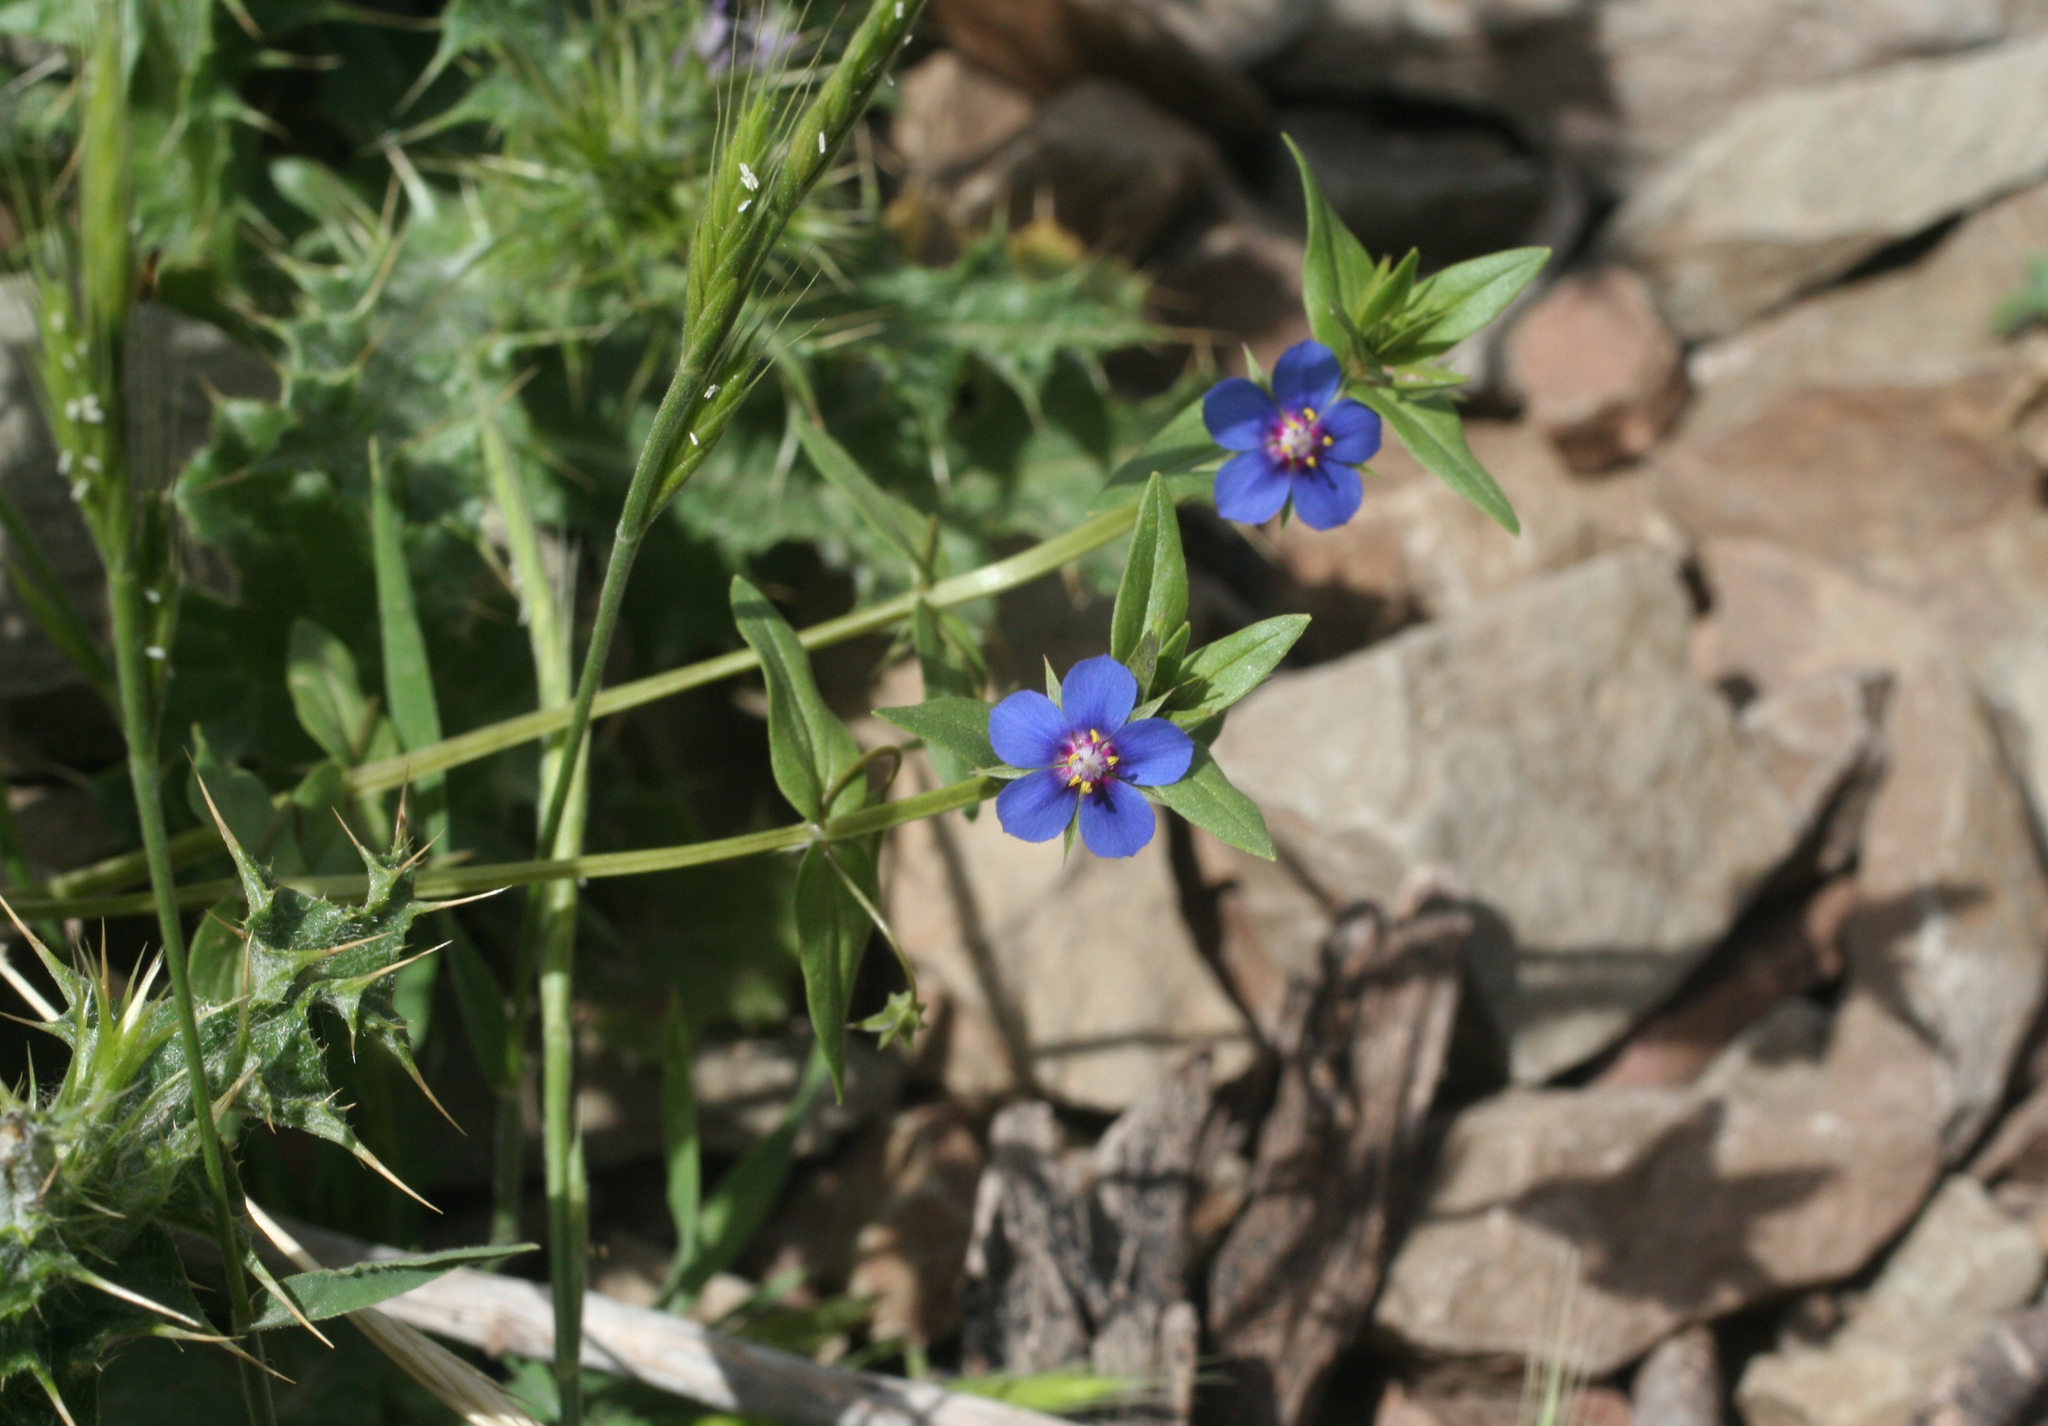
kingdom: Plantae
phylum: Tracheophyta
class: Magnoliopsida
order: Ericales
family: Primulaceae
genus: Lysimachia
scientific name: Lysimachia foemina
